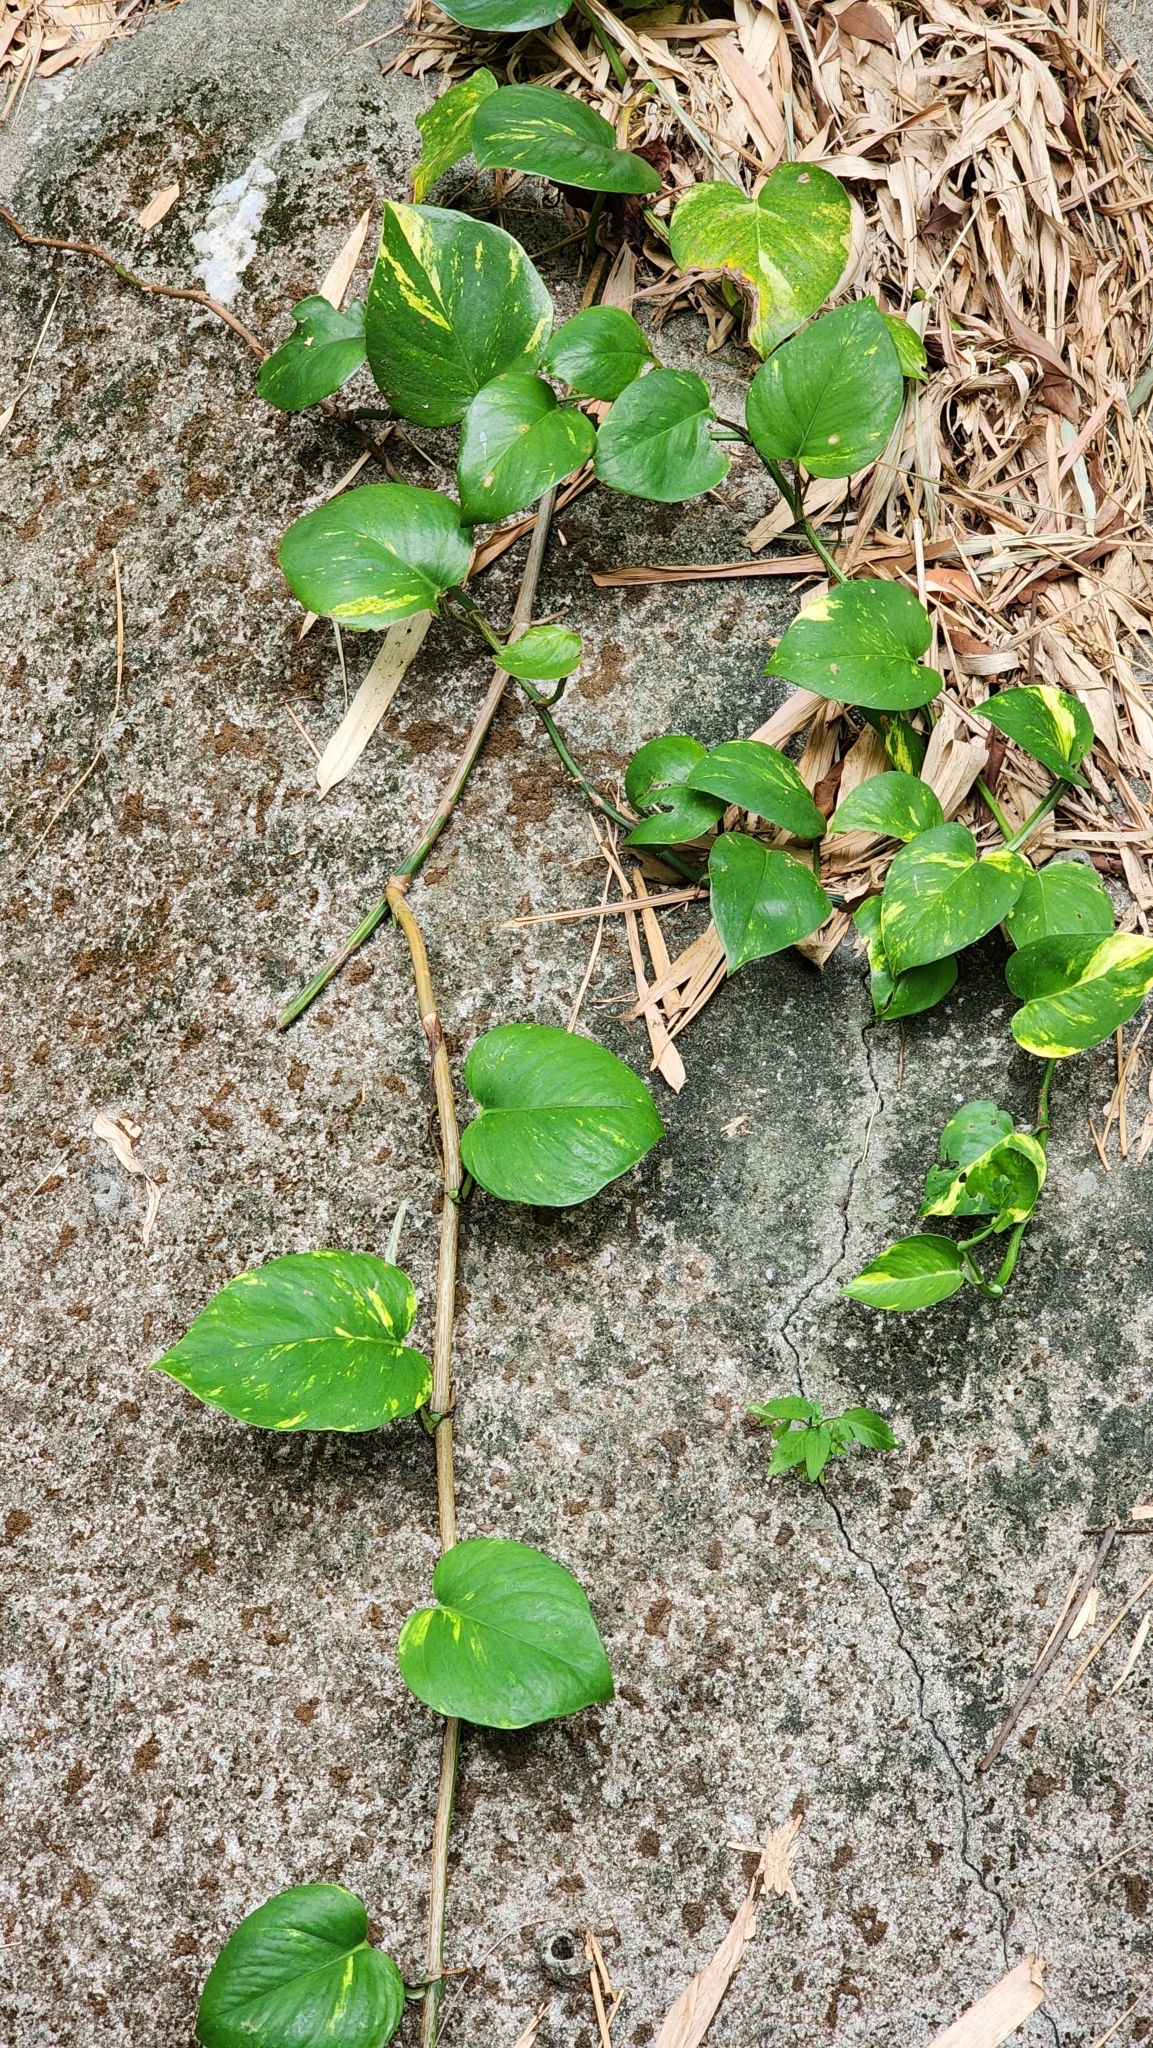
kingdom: Plantae
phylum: Tracheophyta
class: Liliopsida
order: Alismatales
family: Araceae
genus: Epipremnum
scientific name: Epipremnum aureum
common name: Golden hunter's-robe
